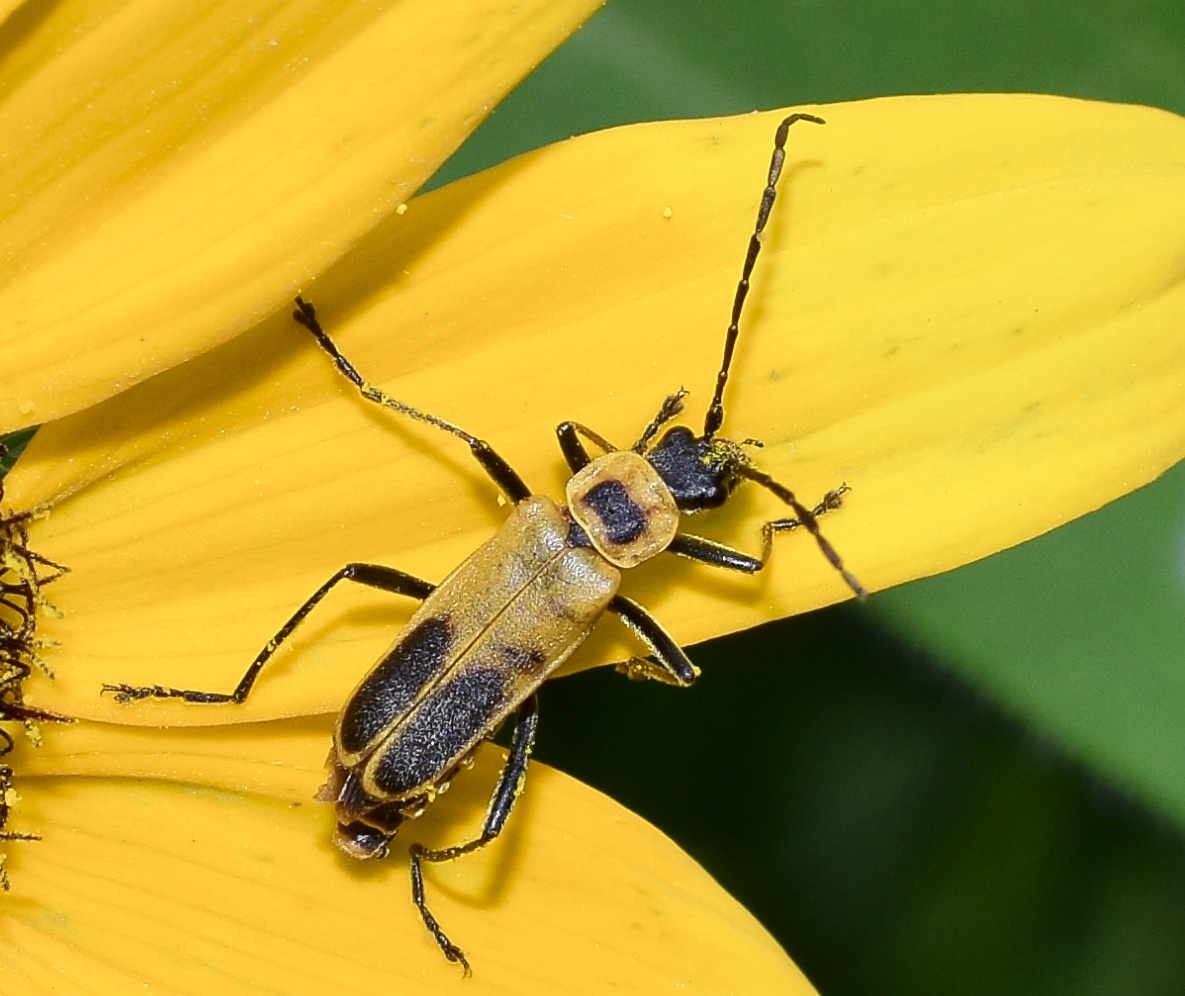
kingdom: Animalia
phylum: Arthropoda
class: Insecta
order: Coleoptera
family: Cantharidae
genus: Chauliognathus
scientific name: Chauliognathus pensylvanicus
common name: Goldenrod soldier beetle
